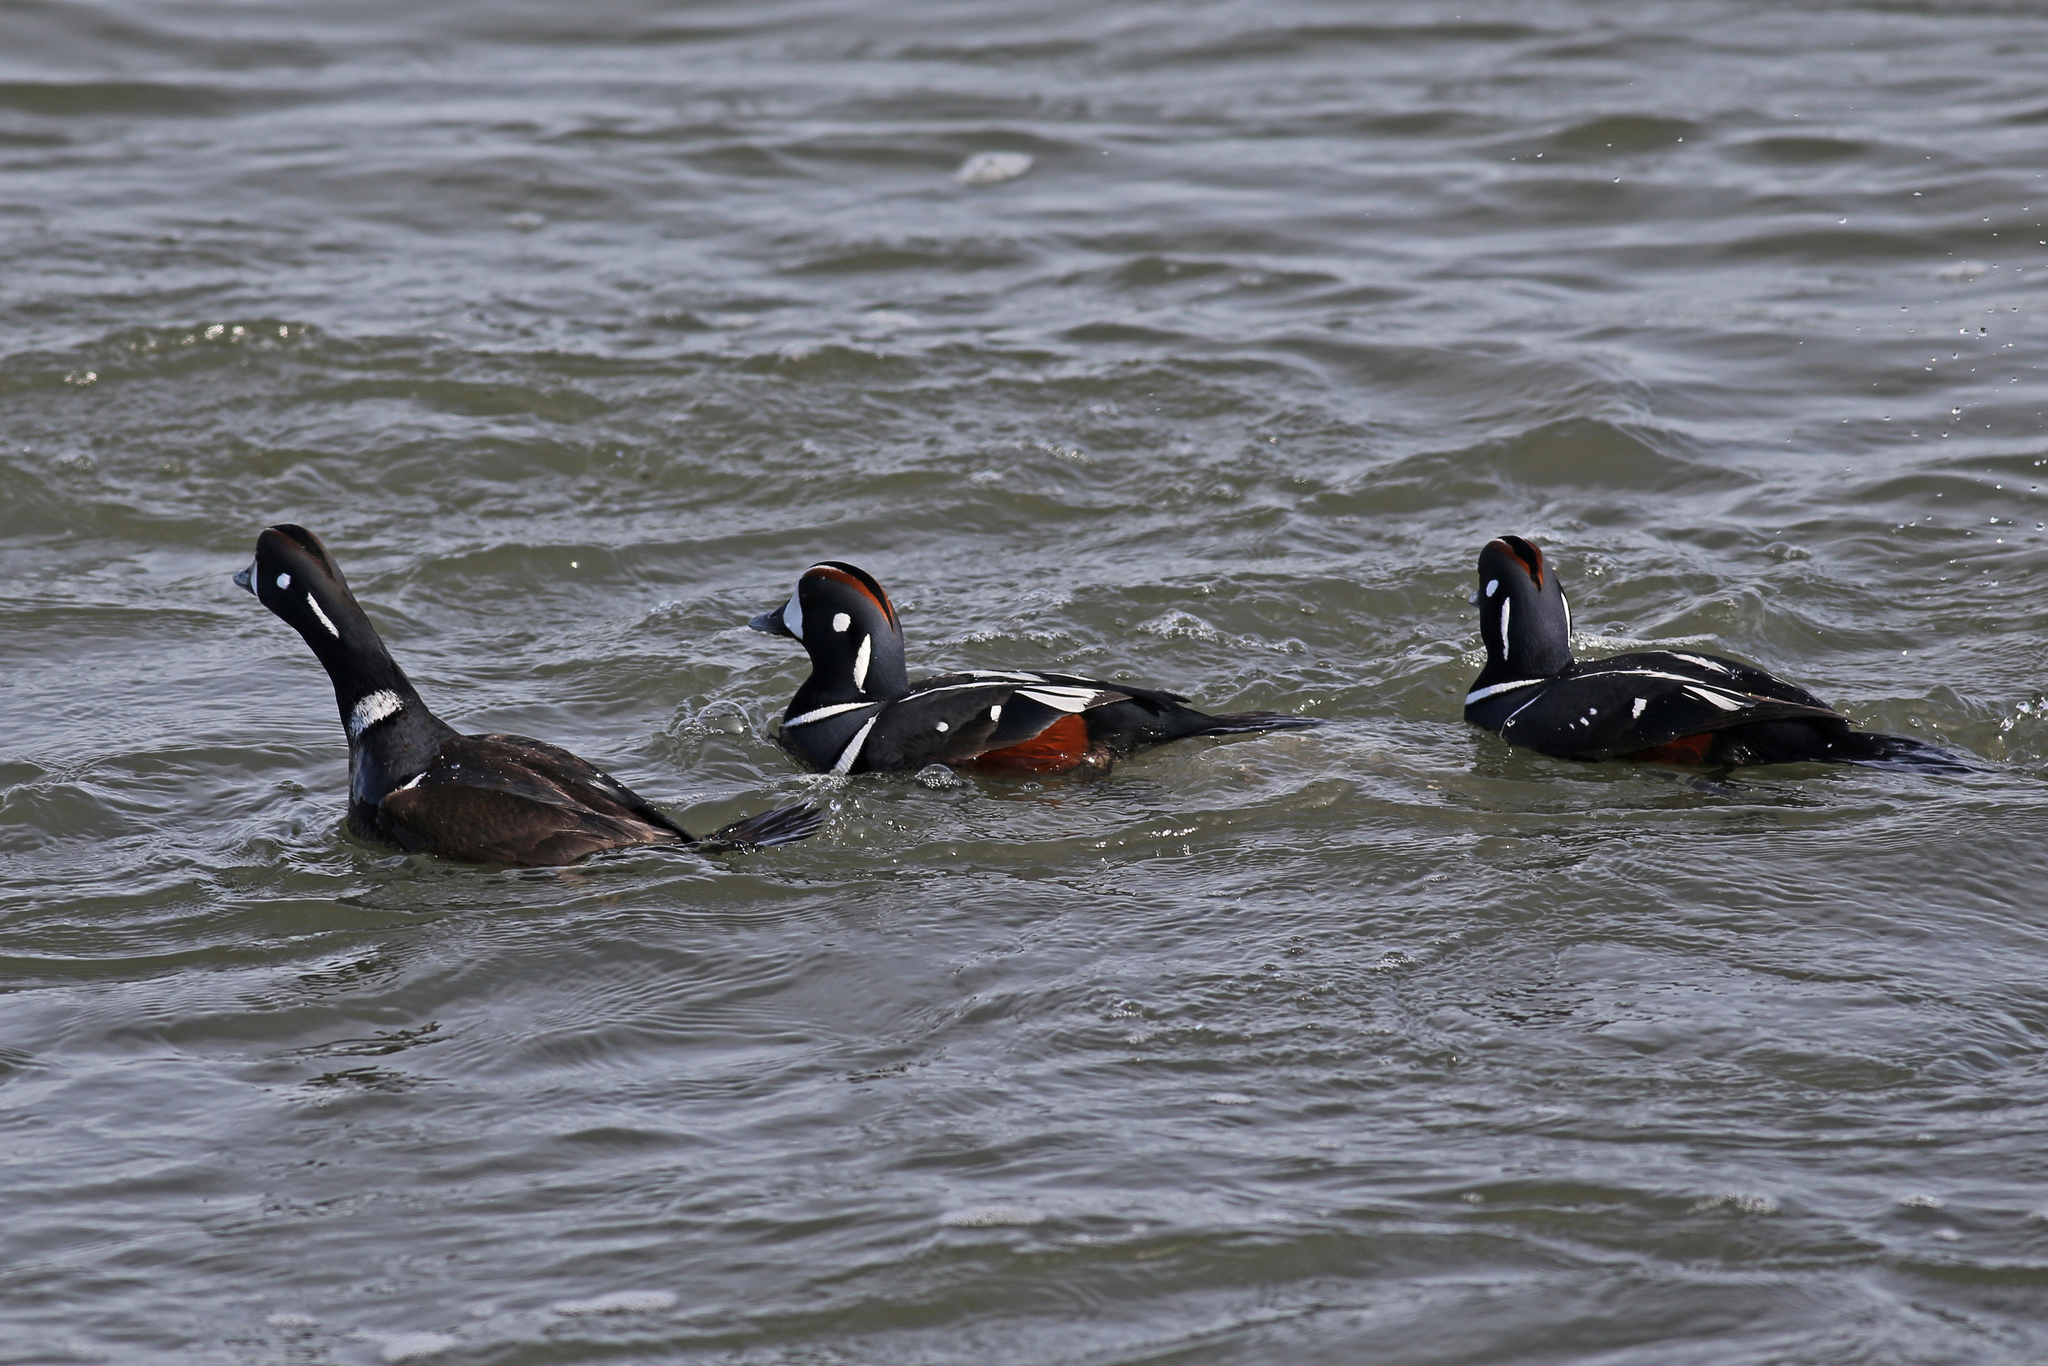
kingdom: Animalia
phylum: Chordata
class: Aves
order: Anseriformes
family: Anatidae
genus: Histrionicus
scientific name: Histrionicus histrionicus
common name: Harlequin duck
